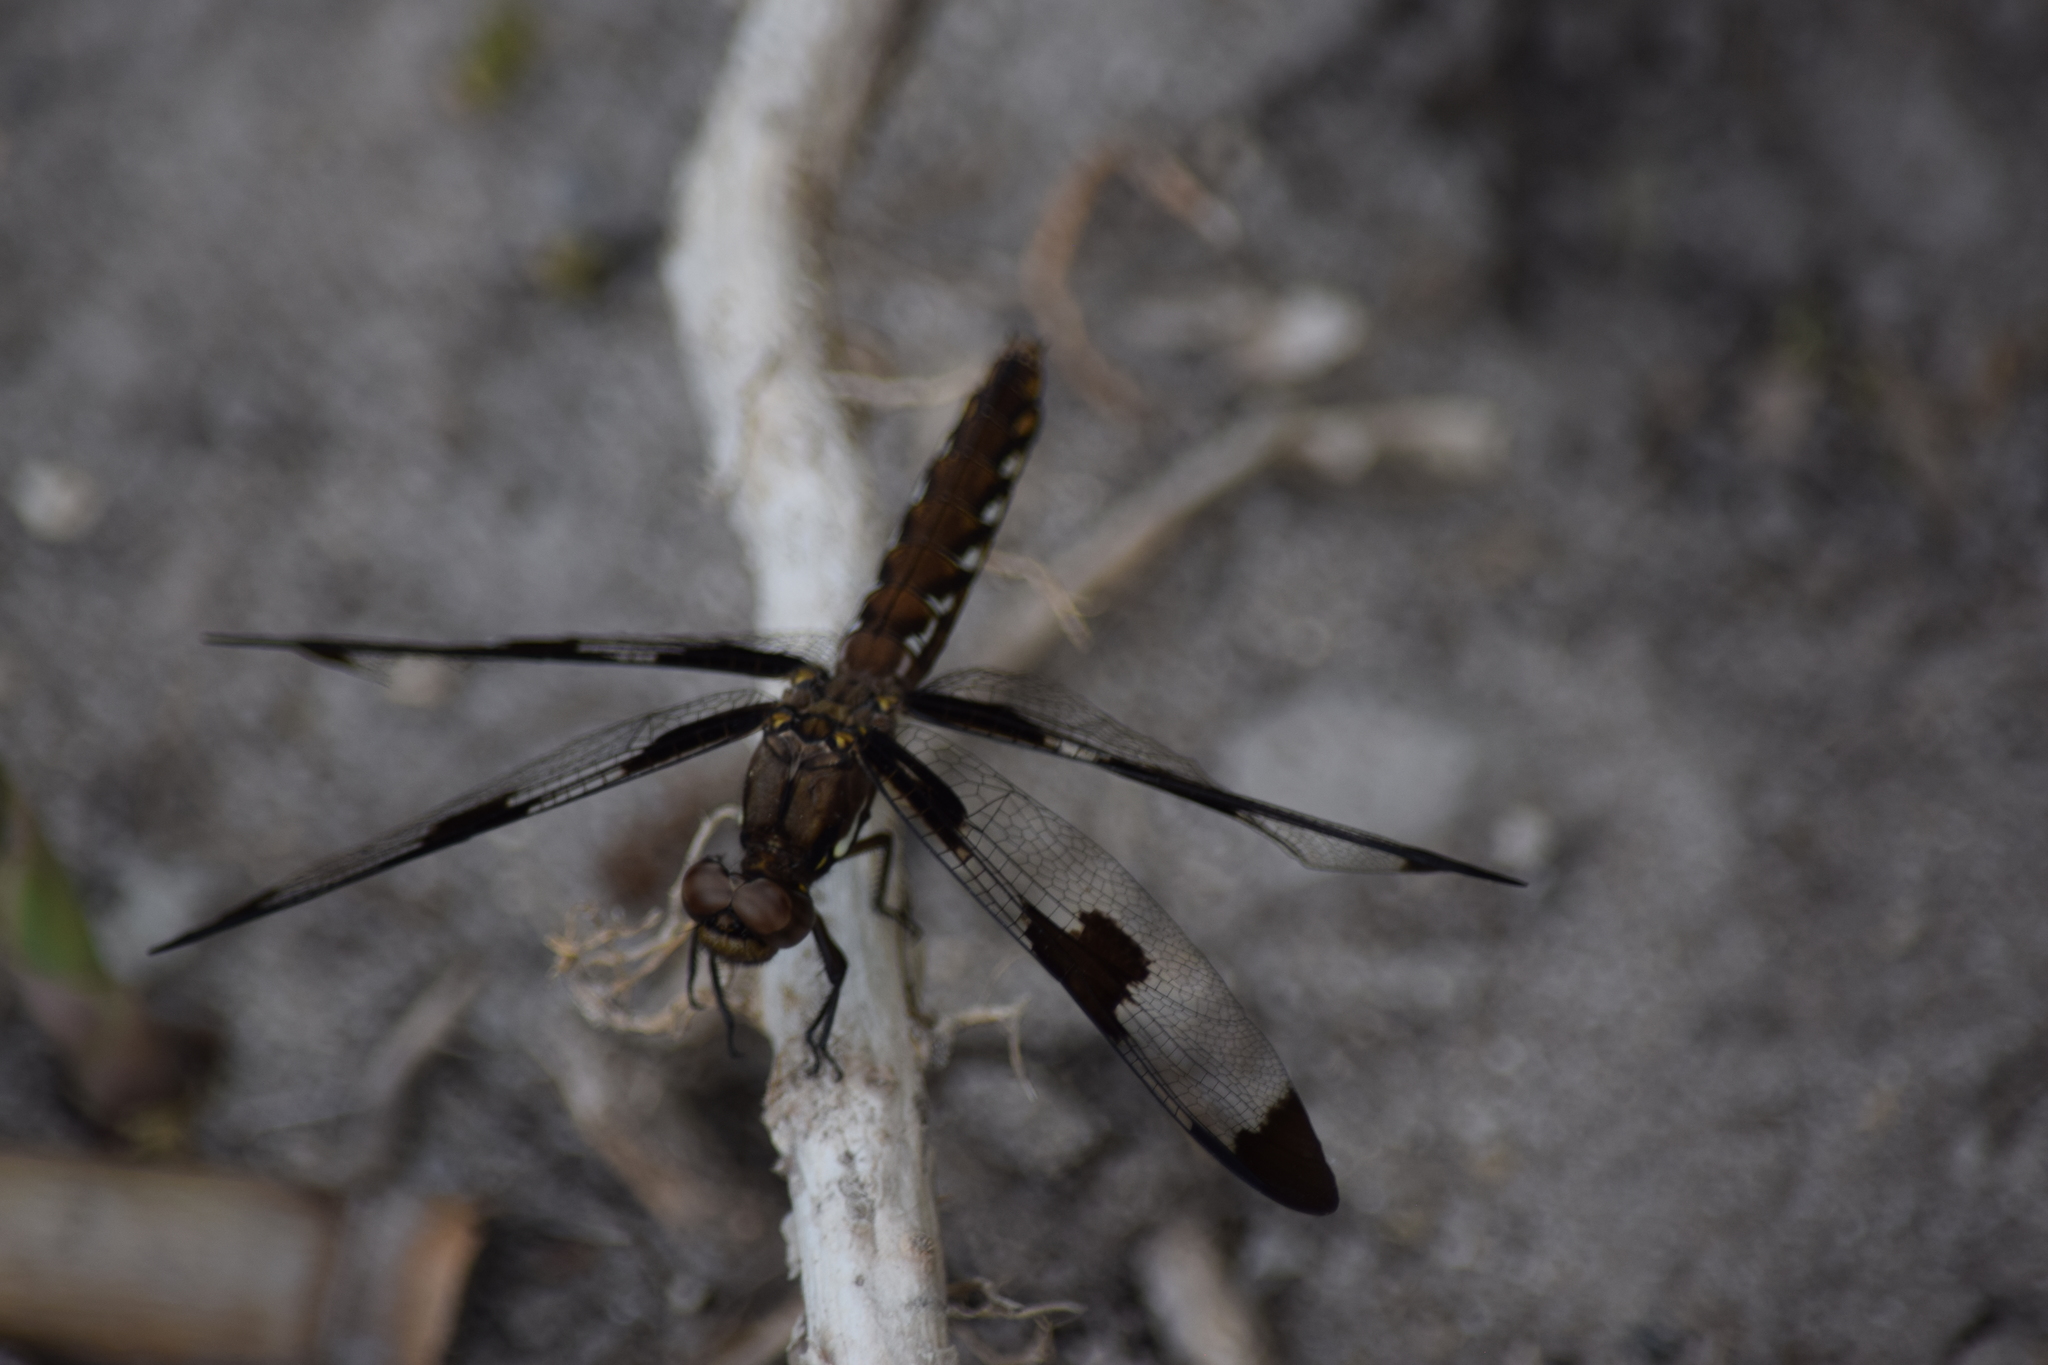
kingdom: Animalia
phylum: Arthropoda
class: Insecta
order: Odonata
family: Libellulidae
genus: Plathemis
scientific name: Plathemis lydia
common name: Common whitetail
